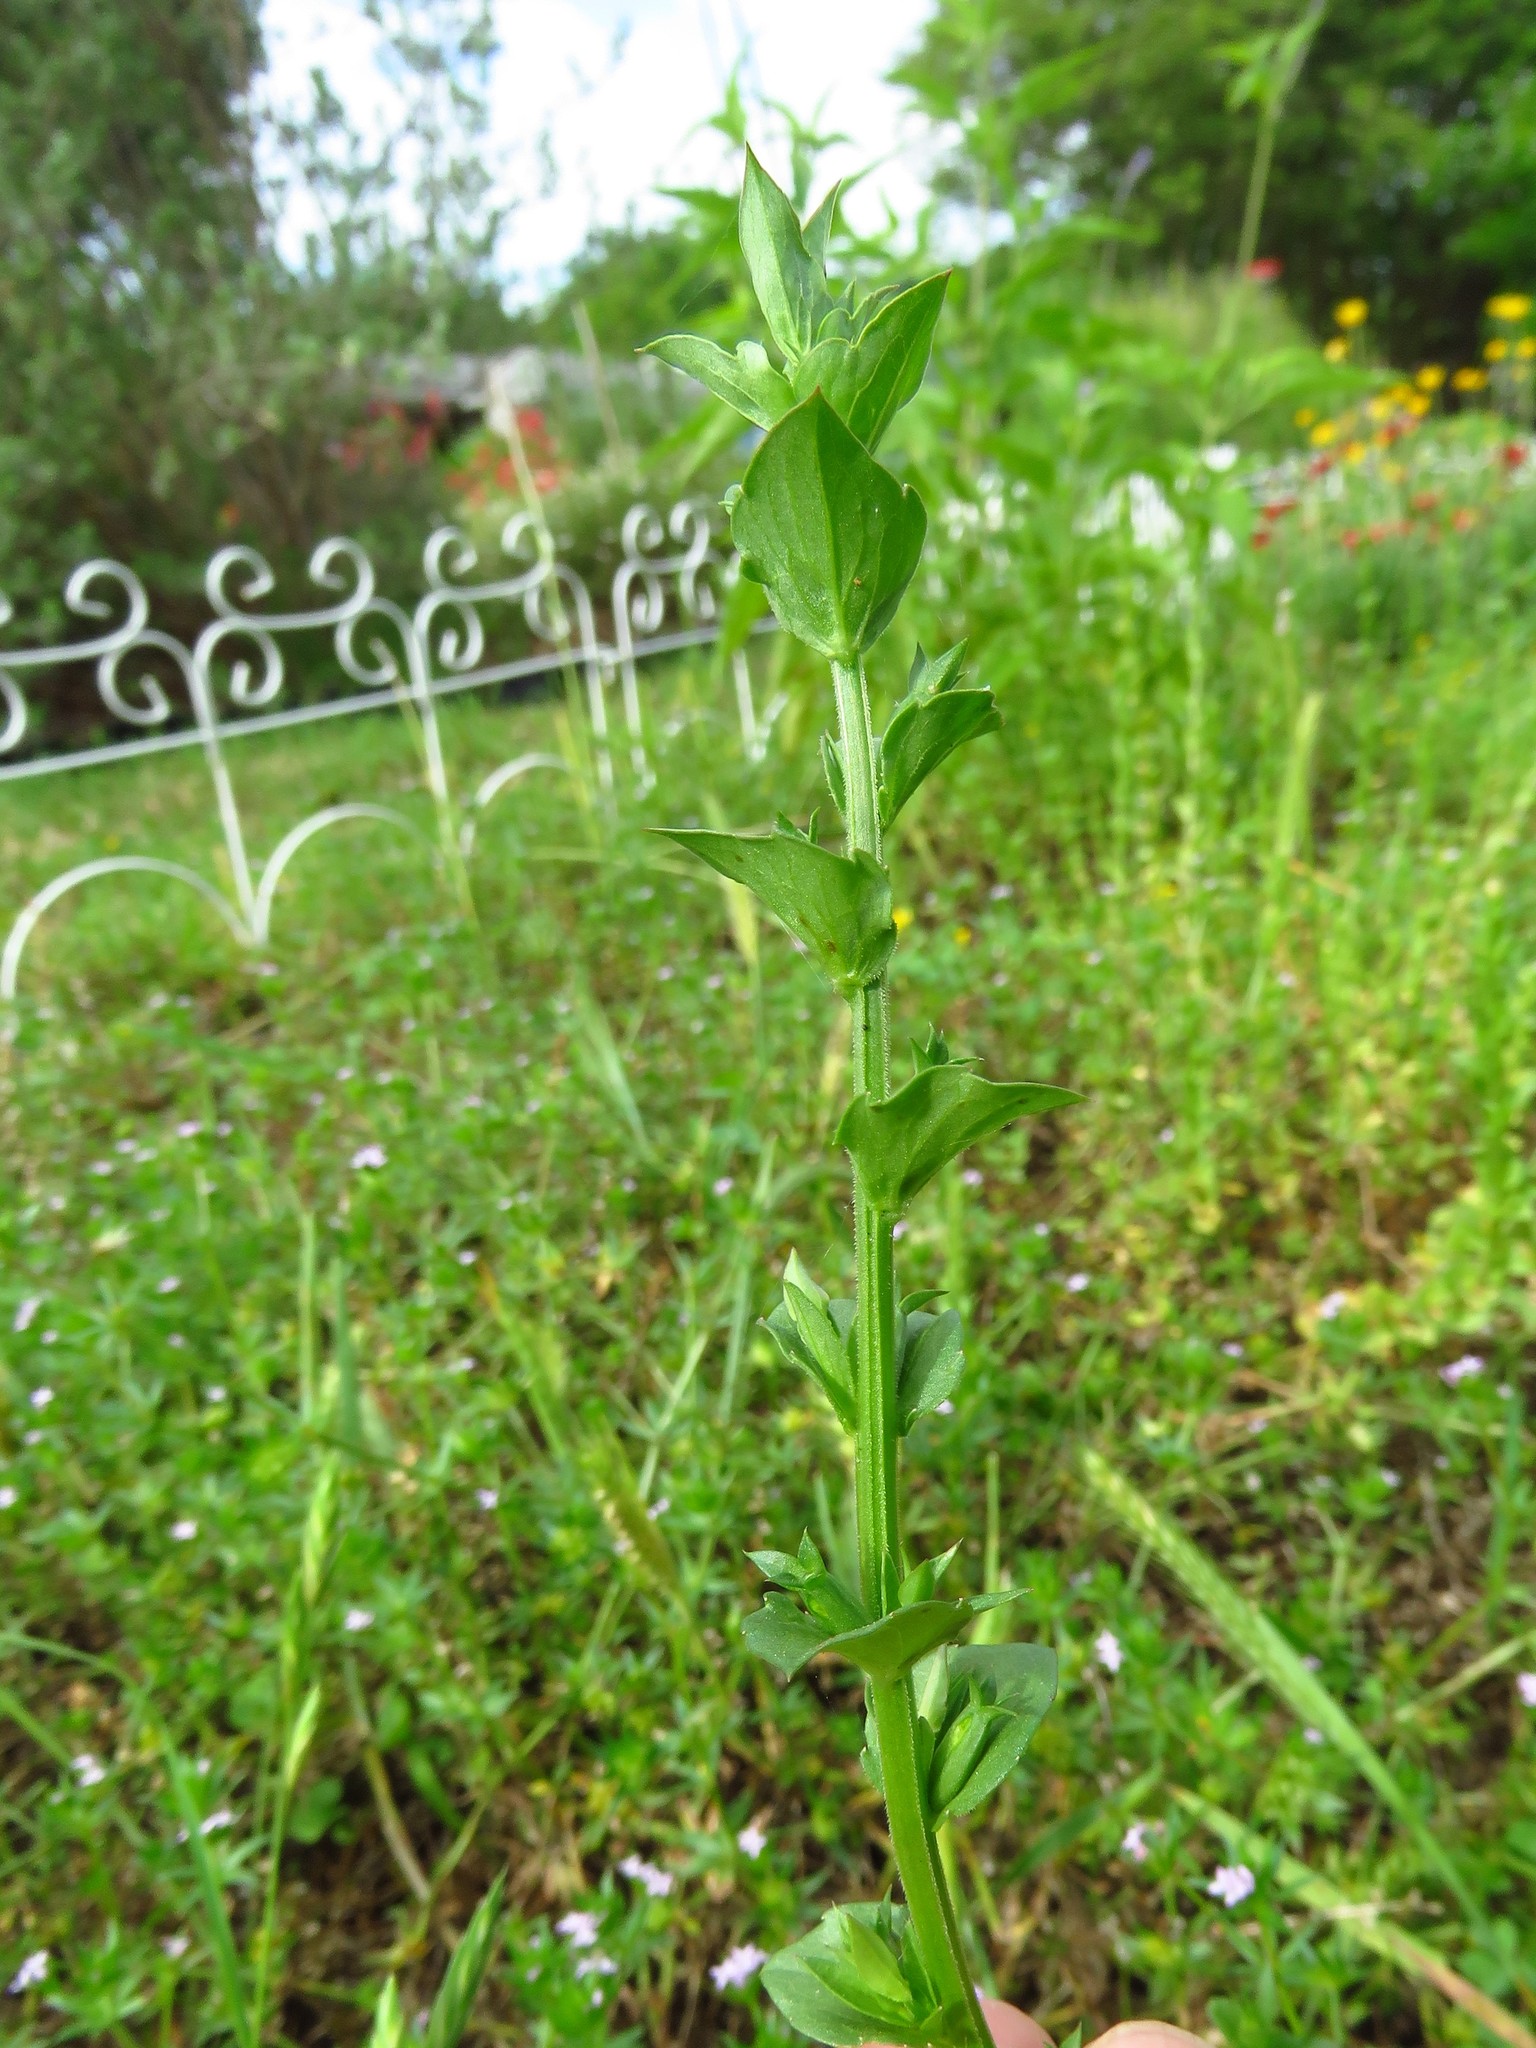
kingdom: Plantae
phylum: Tracheophyta
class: Magnoliopsida
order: Asterales
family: Campanulaceae
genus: Triodanis
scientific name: Triodanis biflora
